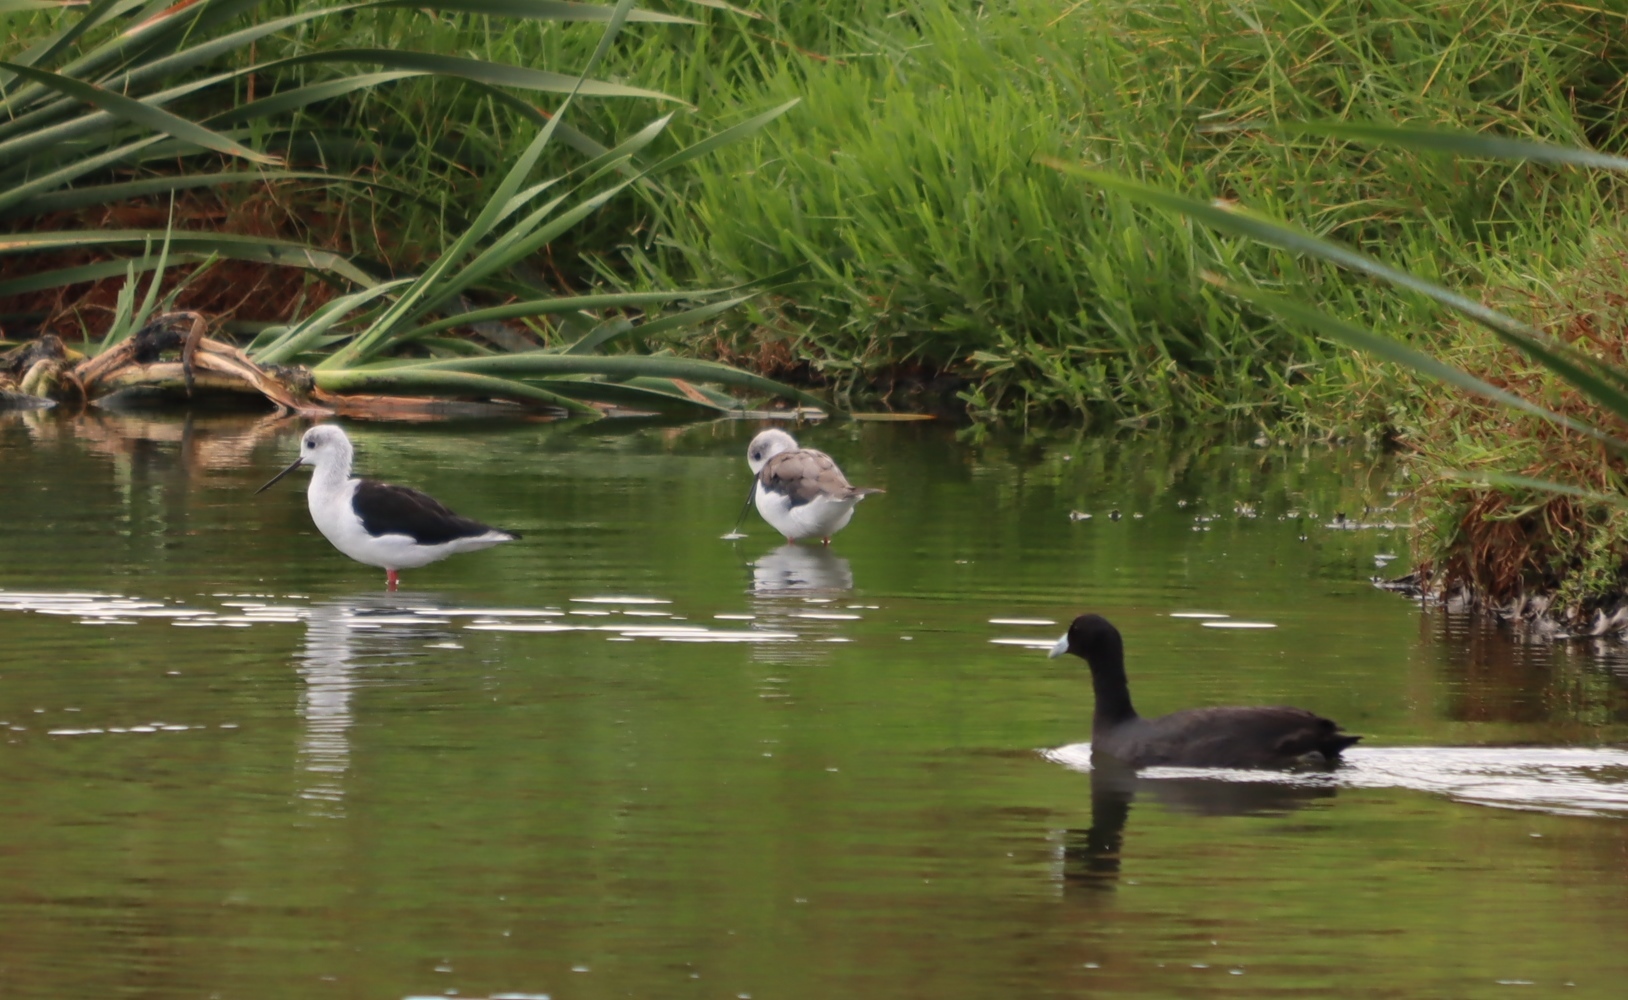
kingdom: Animalia
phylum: Chordata
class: Aves
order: Gruiformes
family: Rallidae
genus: Fulica
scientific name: Fulica cristata
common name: Red-knobbed coot
